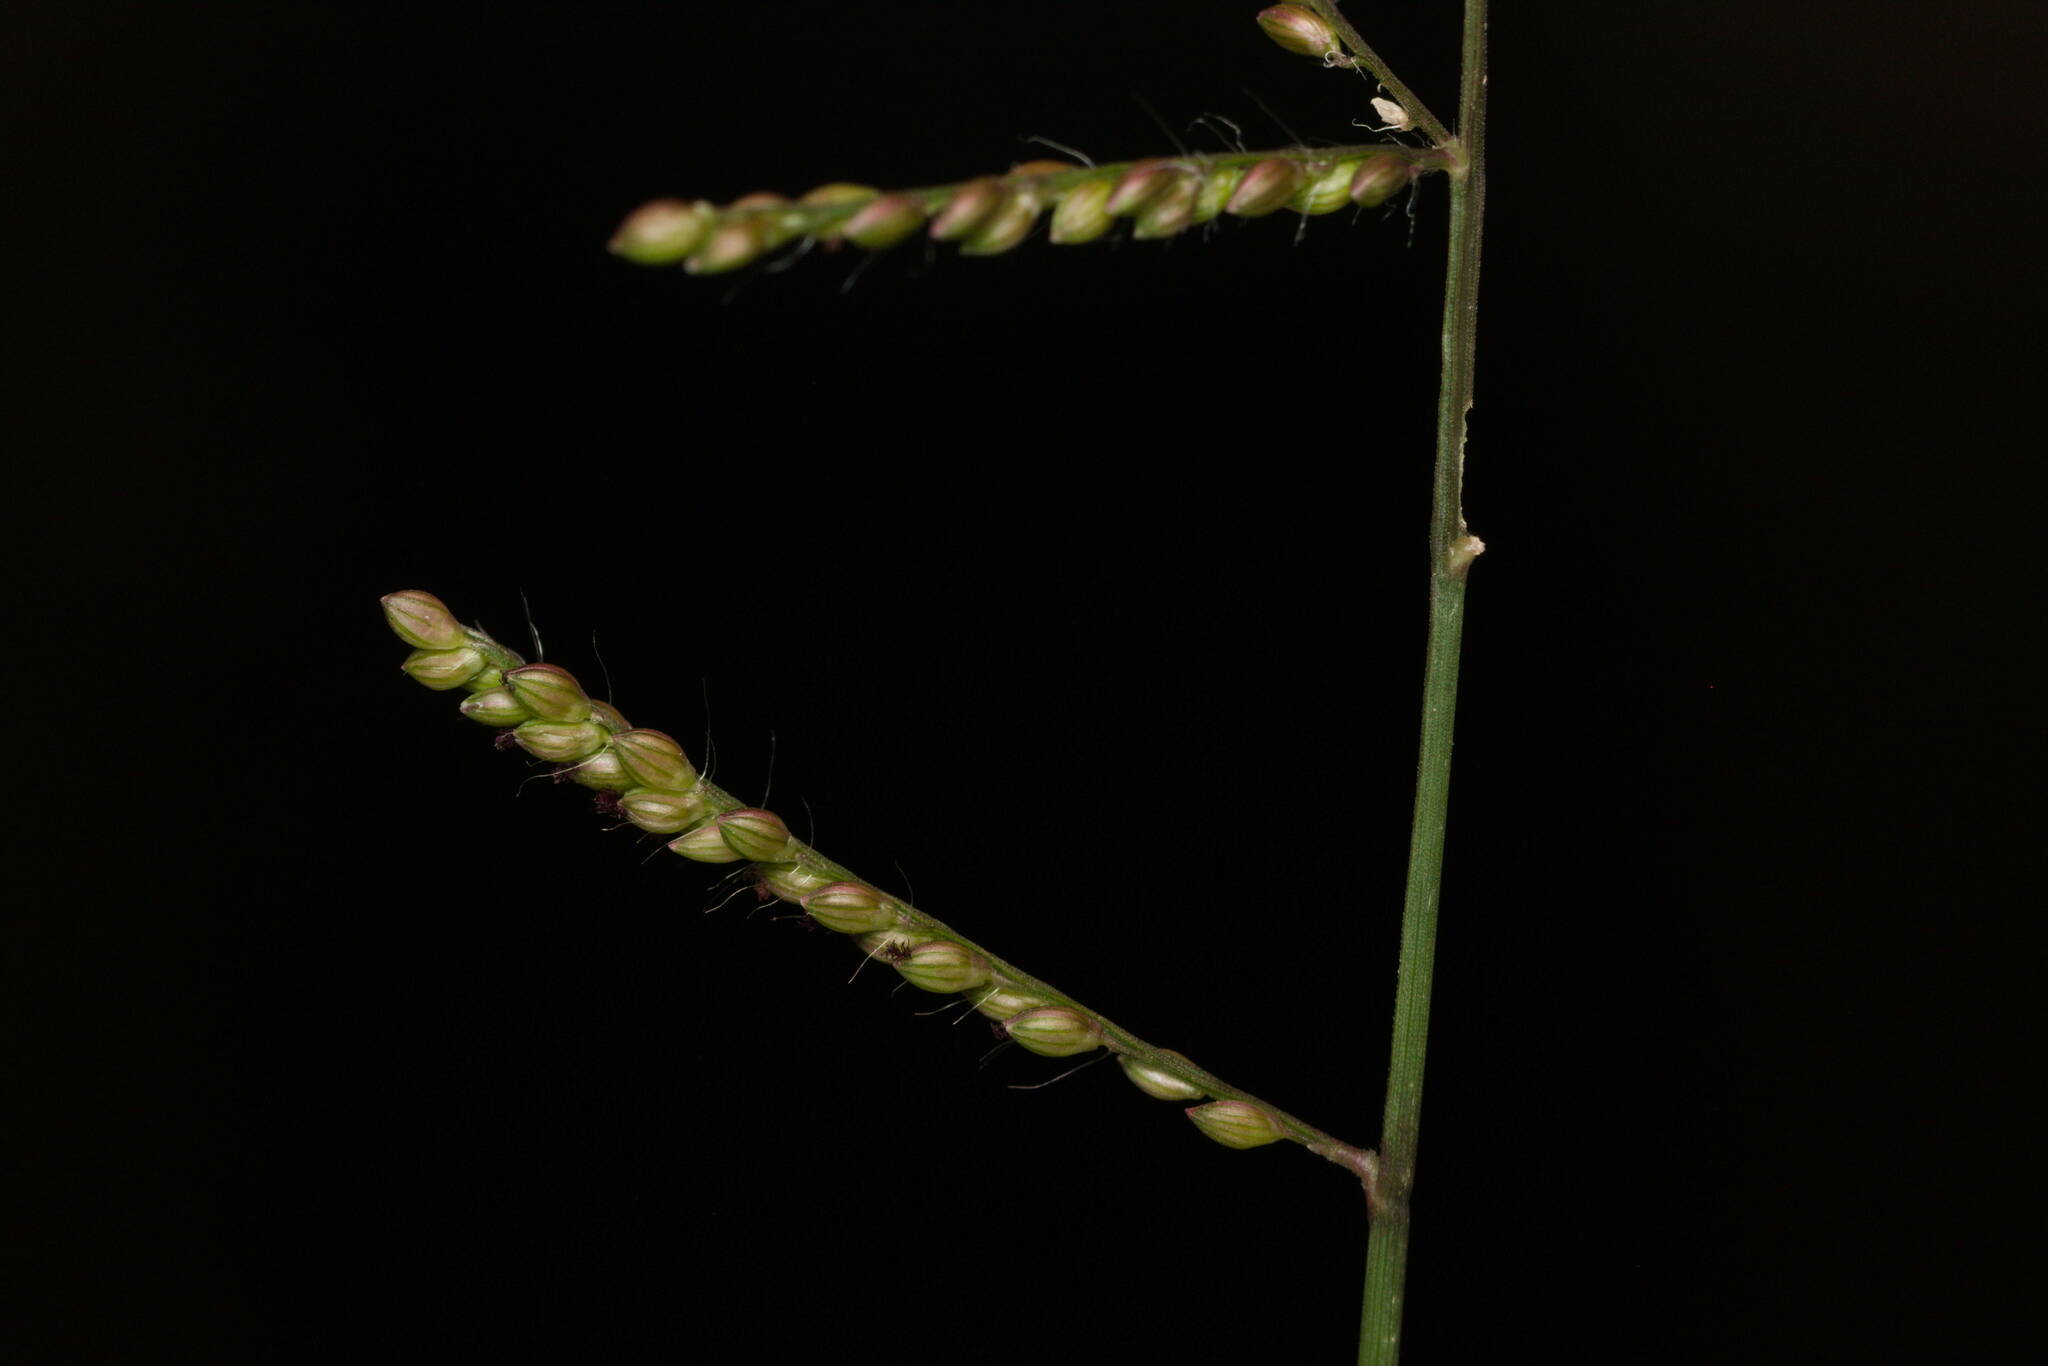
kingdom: Plantae
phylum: Tracheophyta
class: Liliopsida
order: Poales
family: Poaceae
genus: Urochloa
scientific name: Urochloa reptans
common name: Sprawling signalgrass
